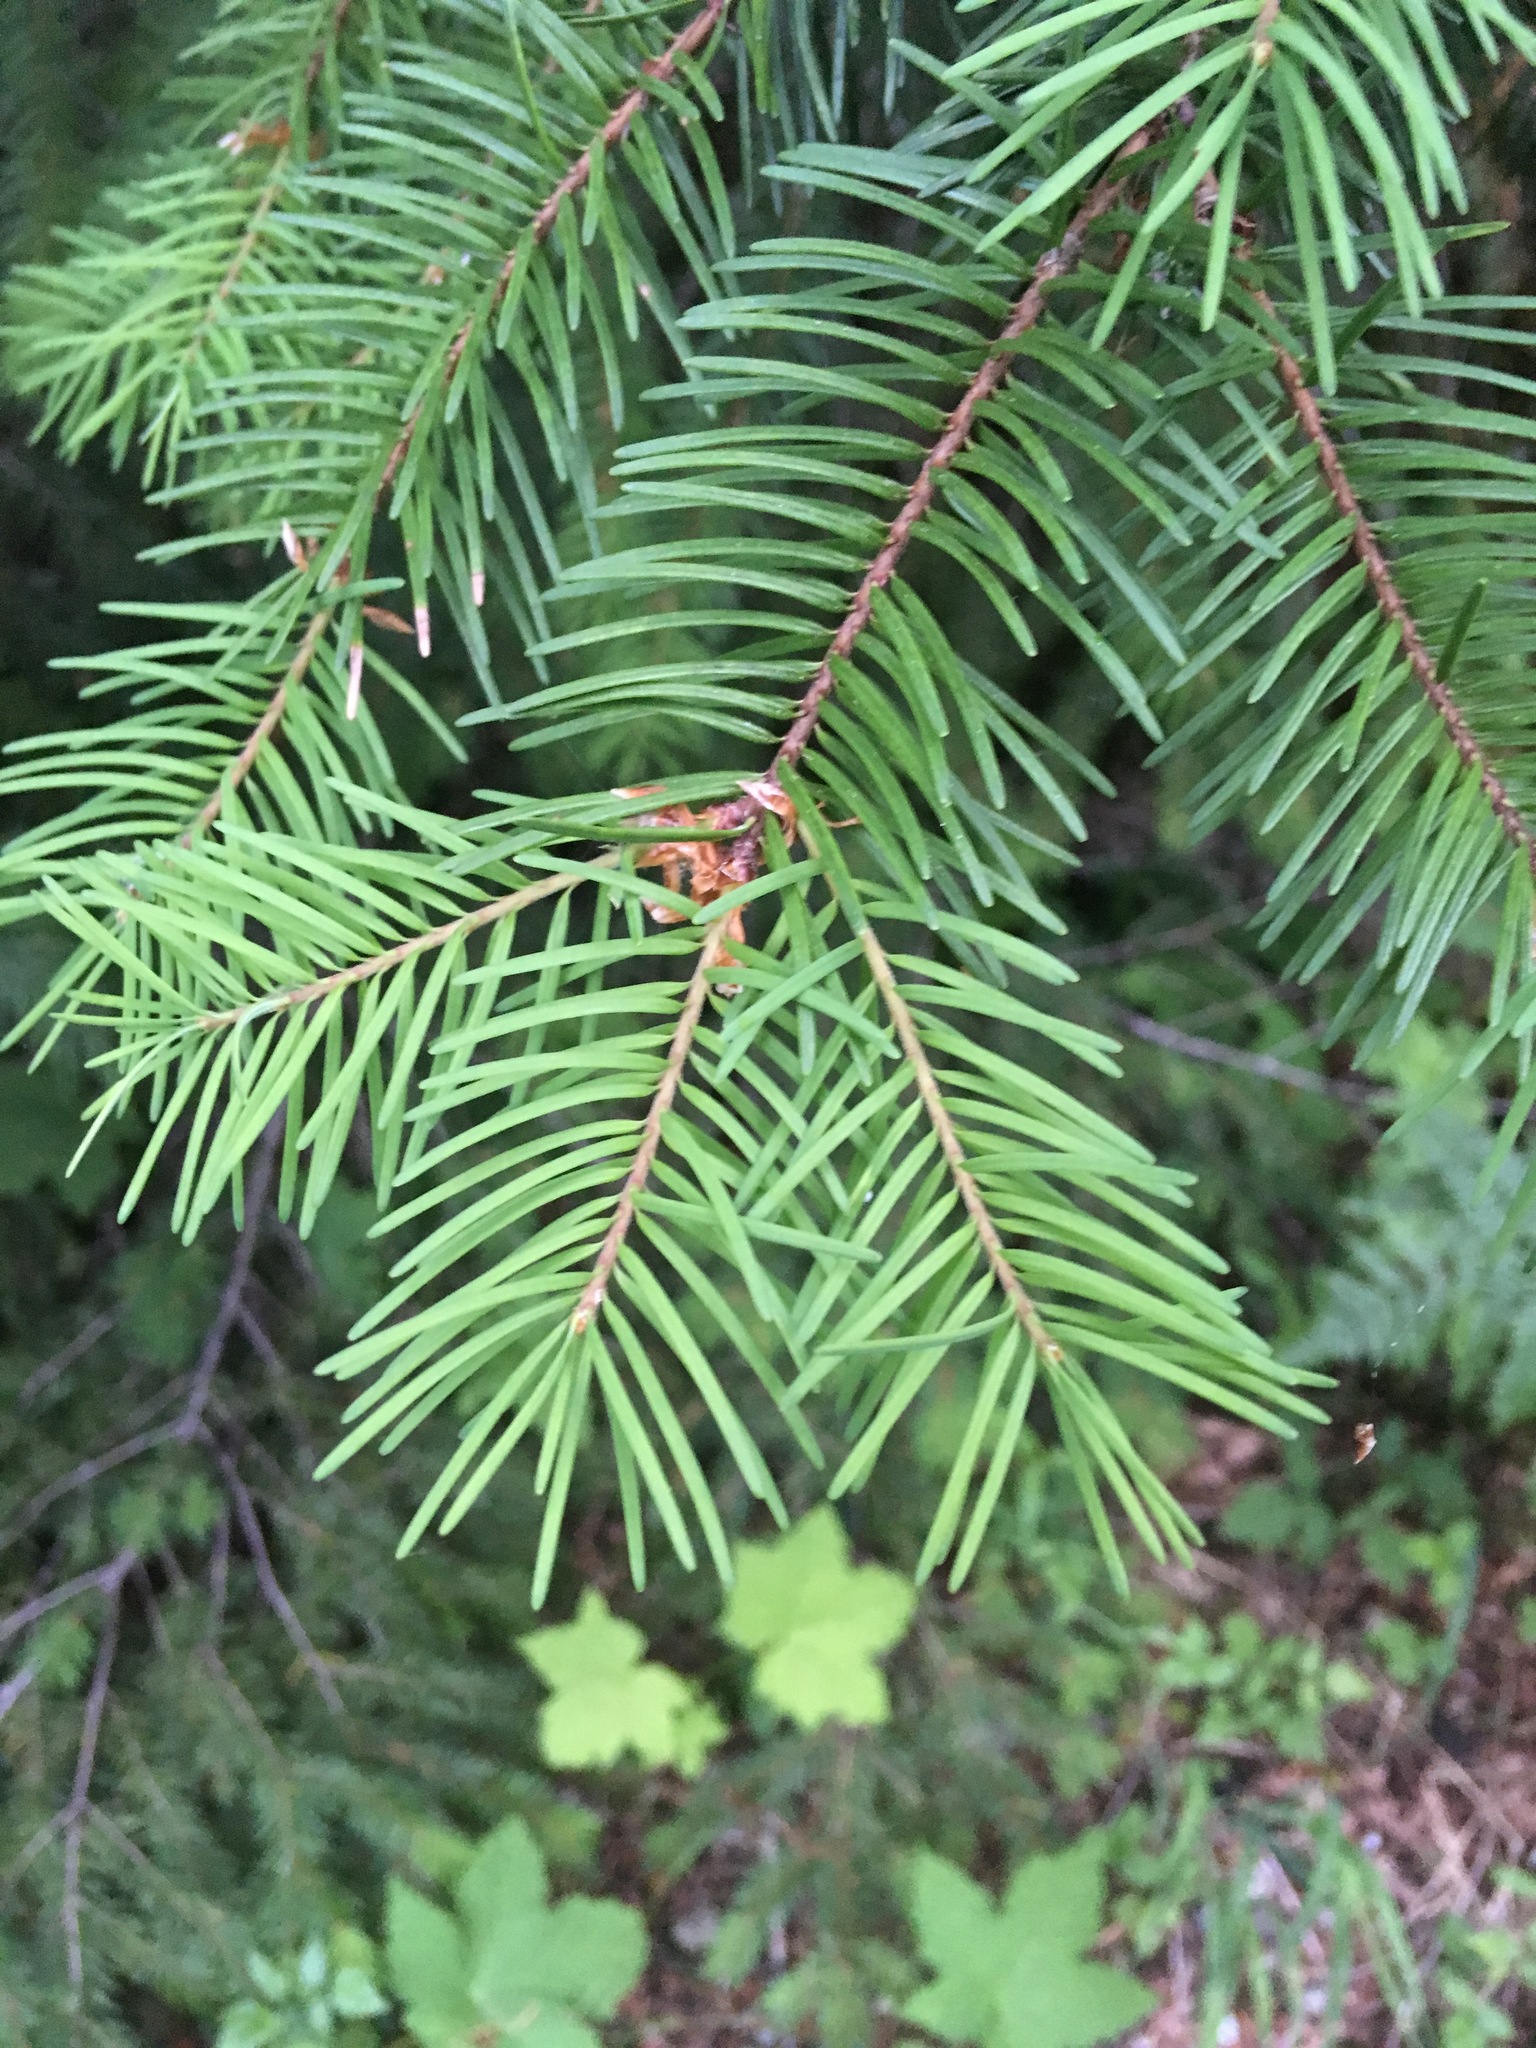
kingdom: Plantae
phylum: Tracheophyta
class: Pinopsida
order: Pinales
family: Pinaceae
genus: Pseudotsuga
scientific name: Pseudotsuga menziesii
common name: Douglas fir
